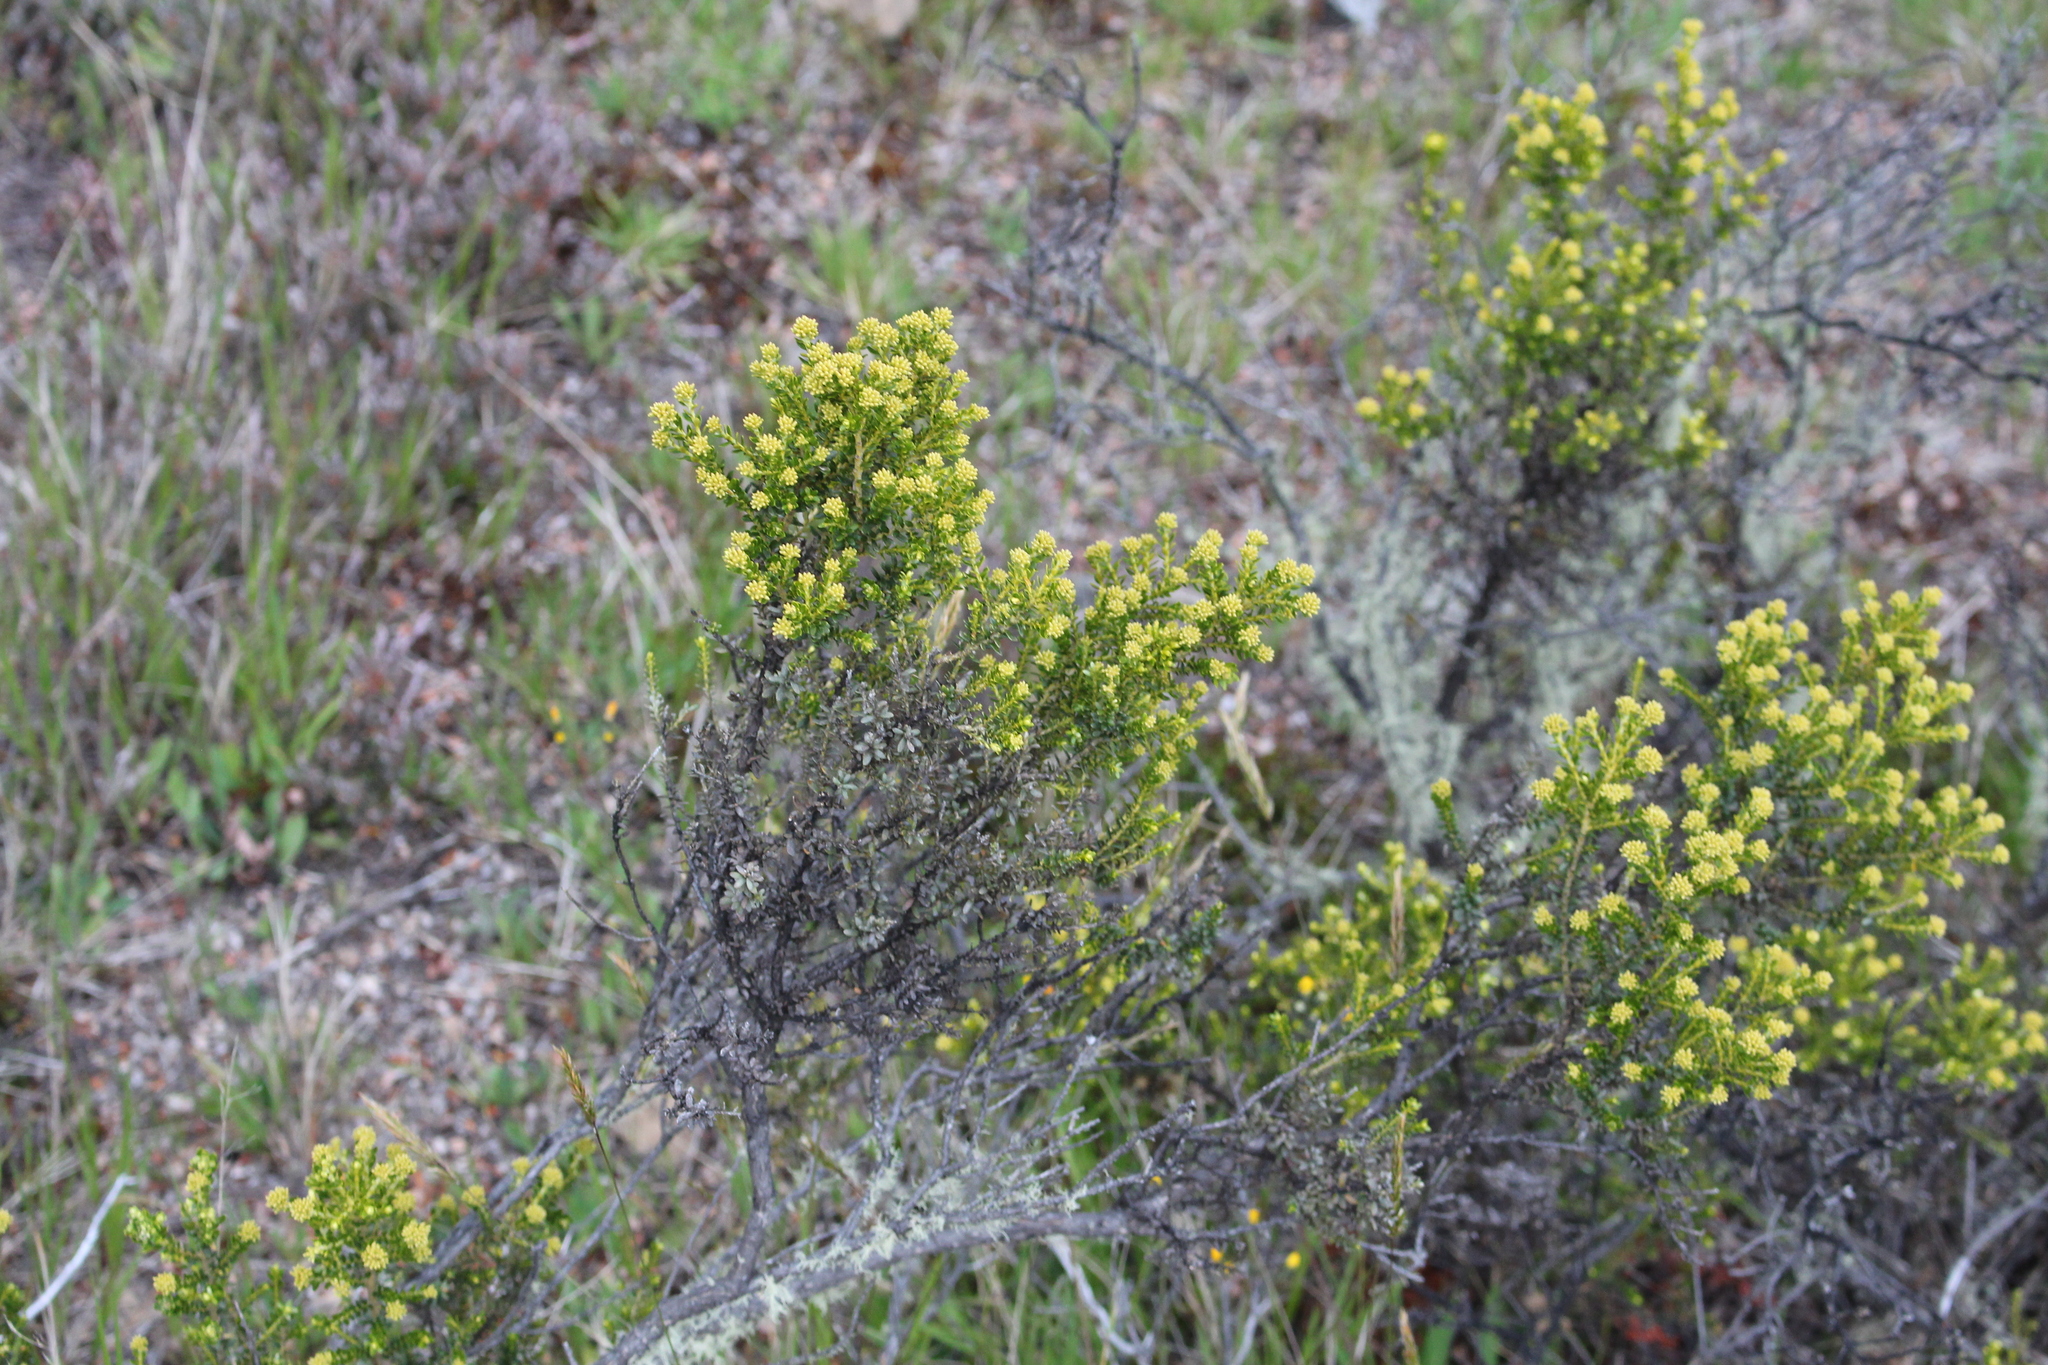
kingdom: Plantae
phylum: Tracheophyta
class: Magnoliopsida
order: Asterales
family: Asteraceae
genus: Ozothamnus
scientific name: Ozothamnus leptophyllus
